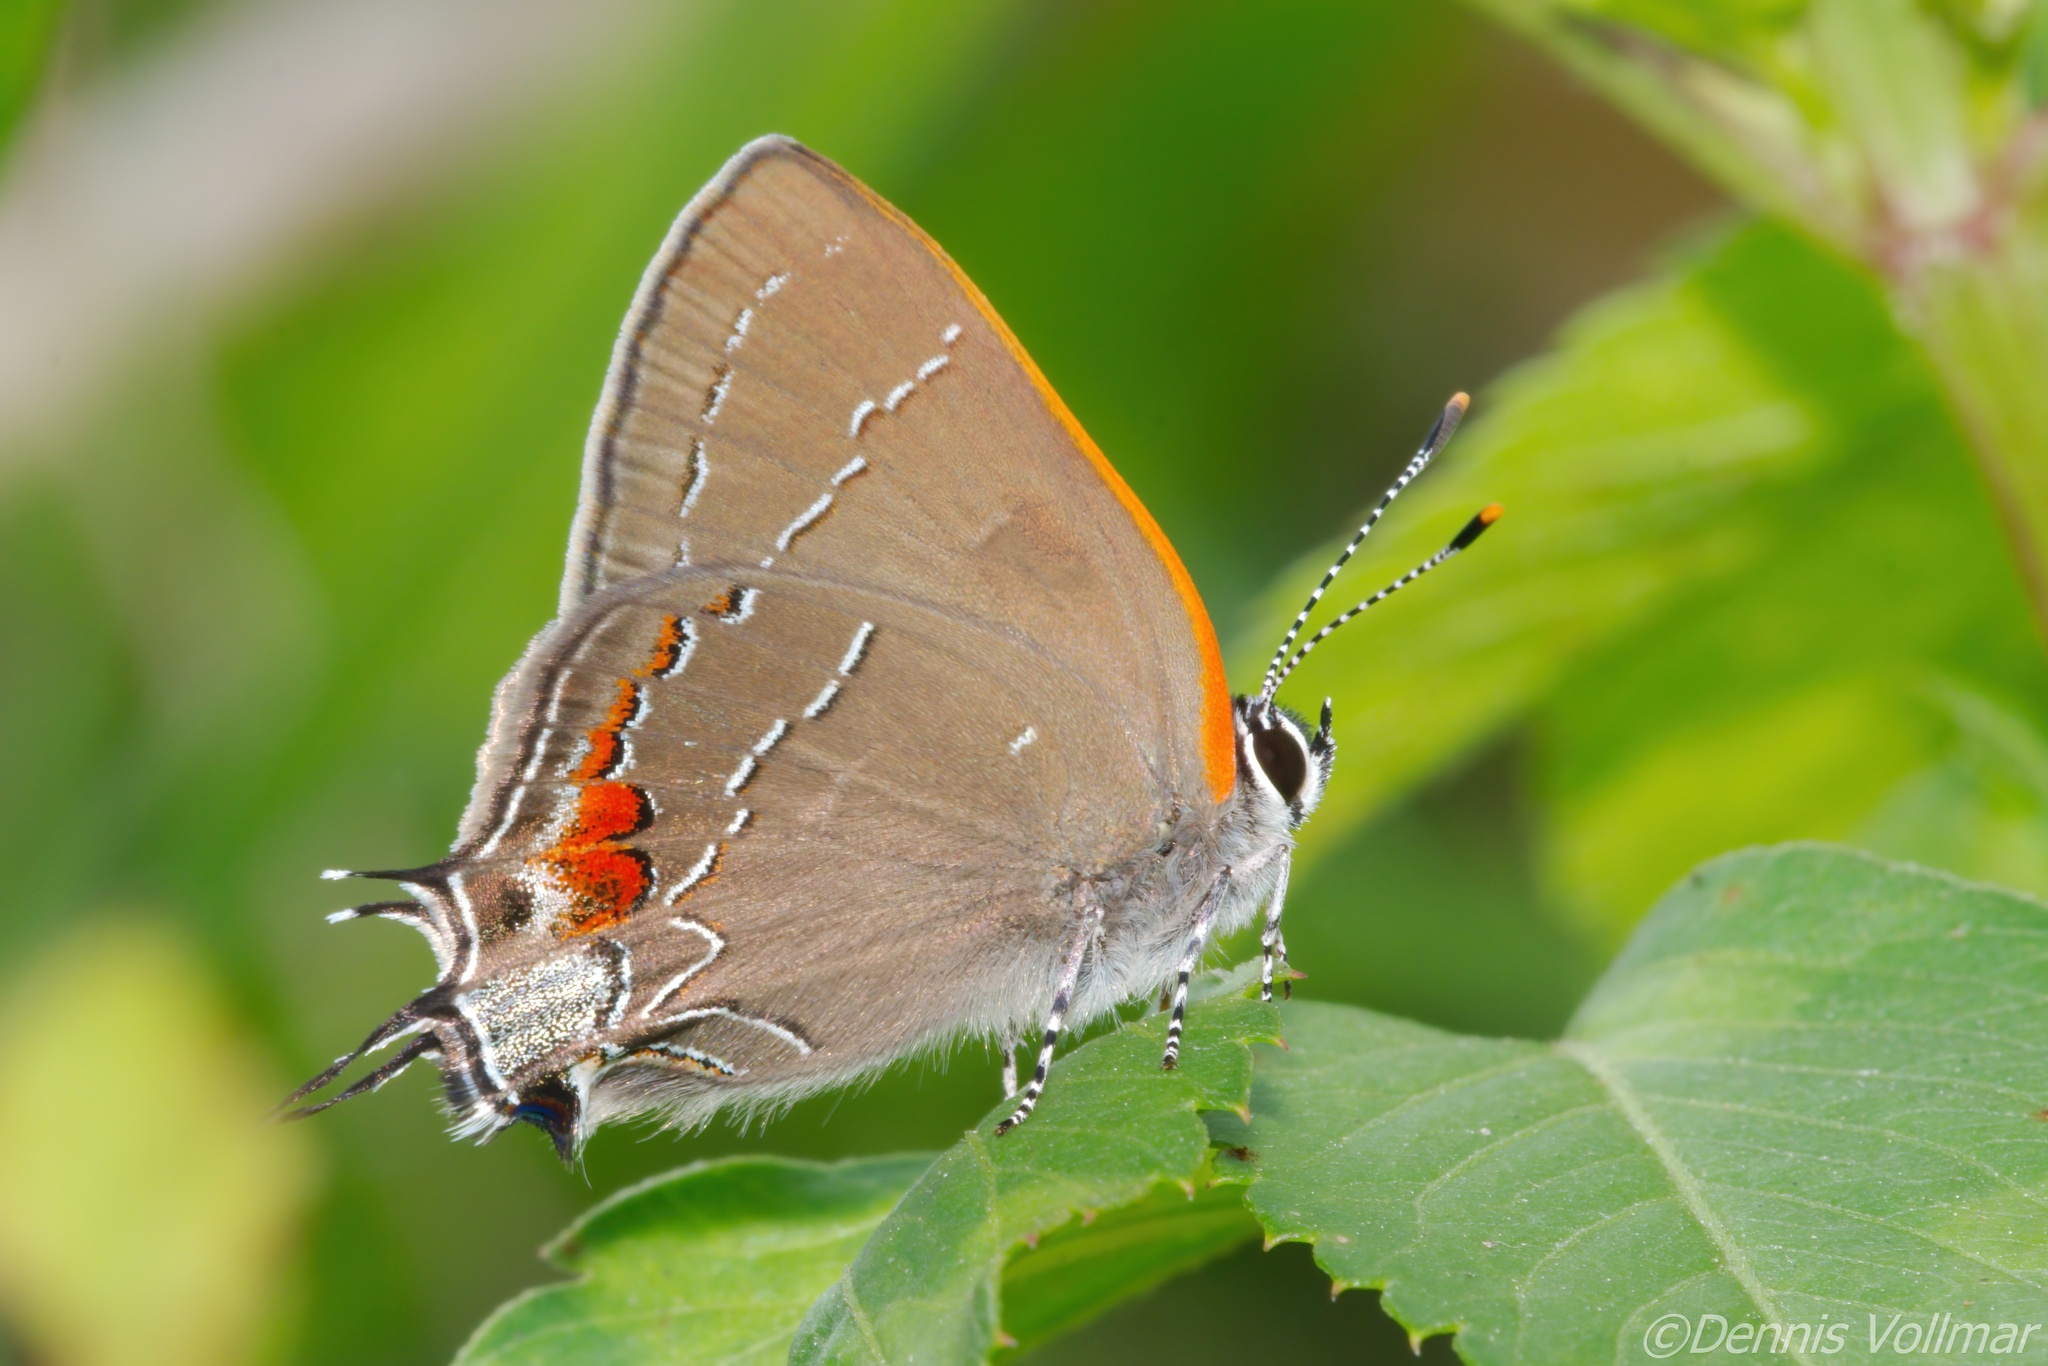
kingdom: Animalia
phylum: Arthropoda
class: Insecta
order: Lepidoptera
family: Lycaenidae
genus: Fixsenia
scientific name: Fixsenia favonius
